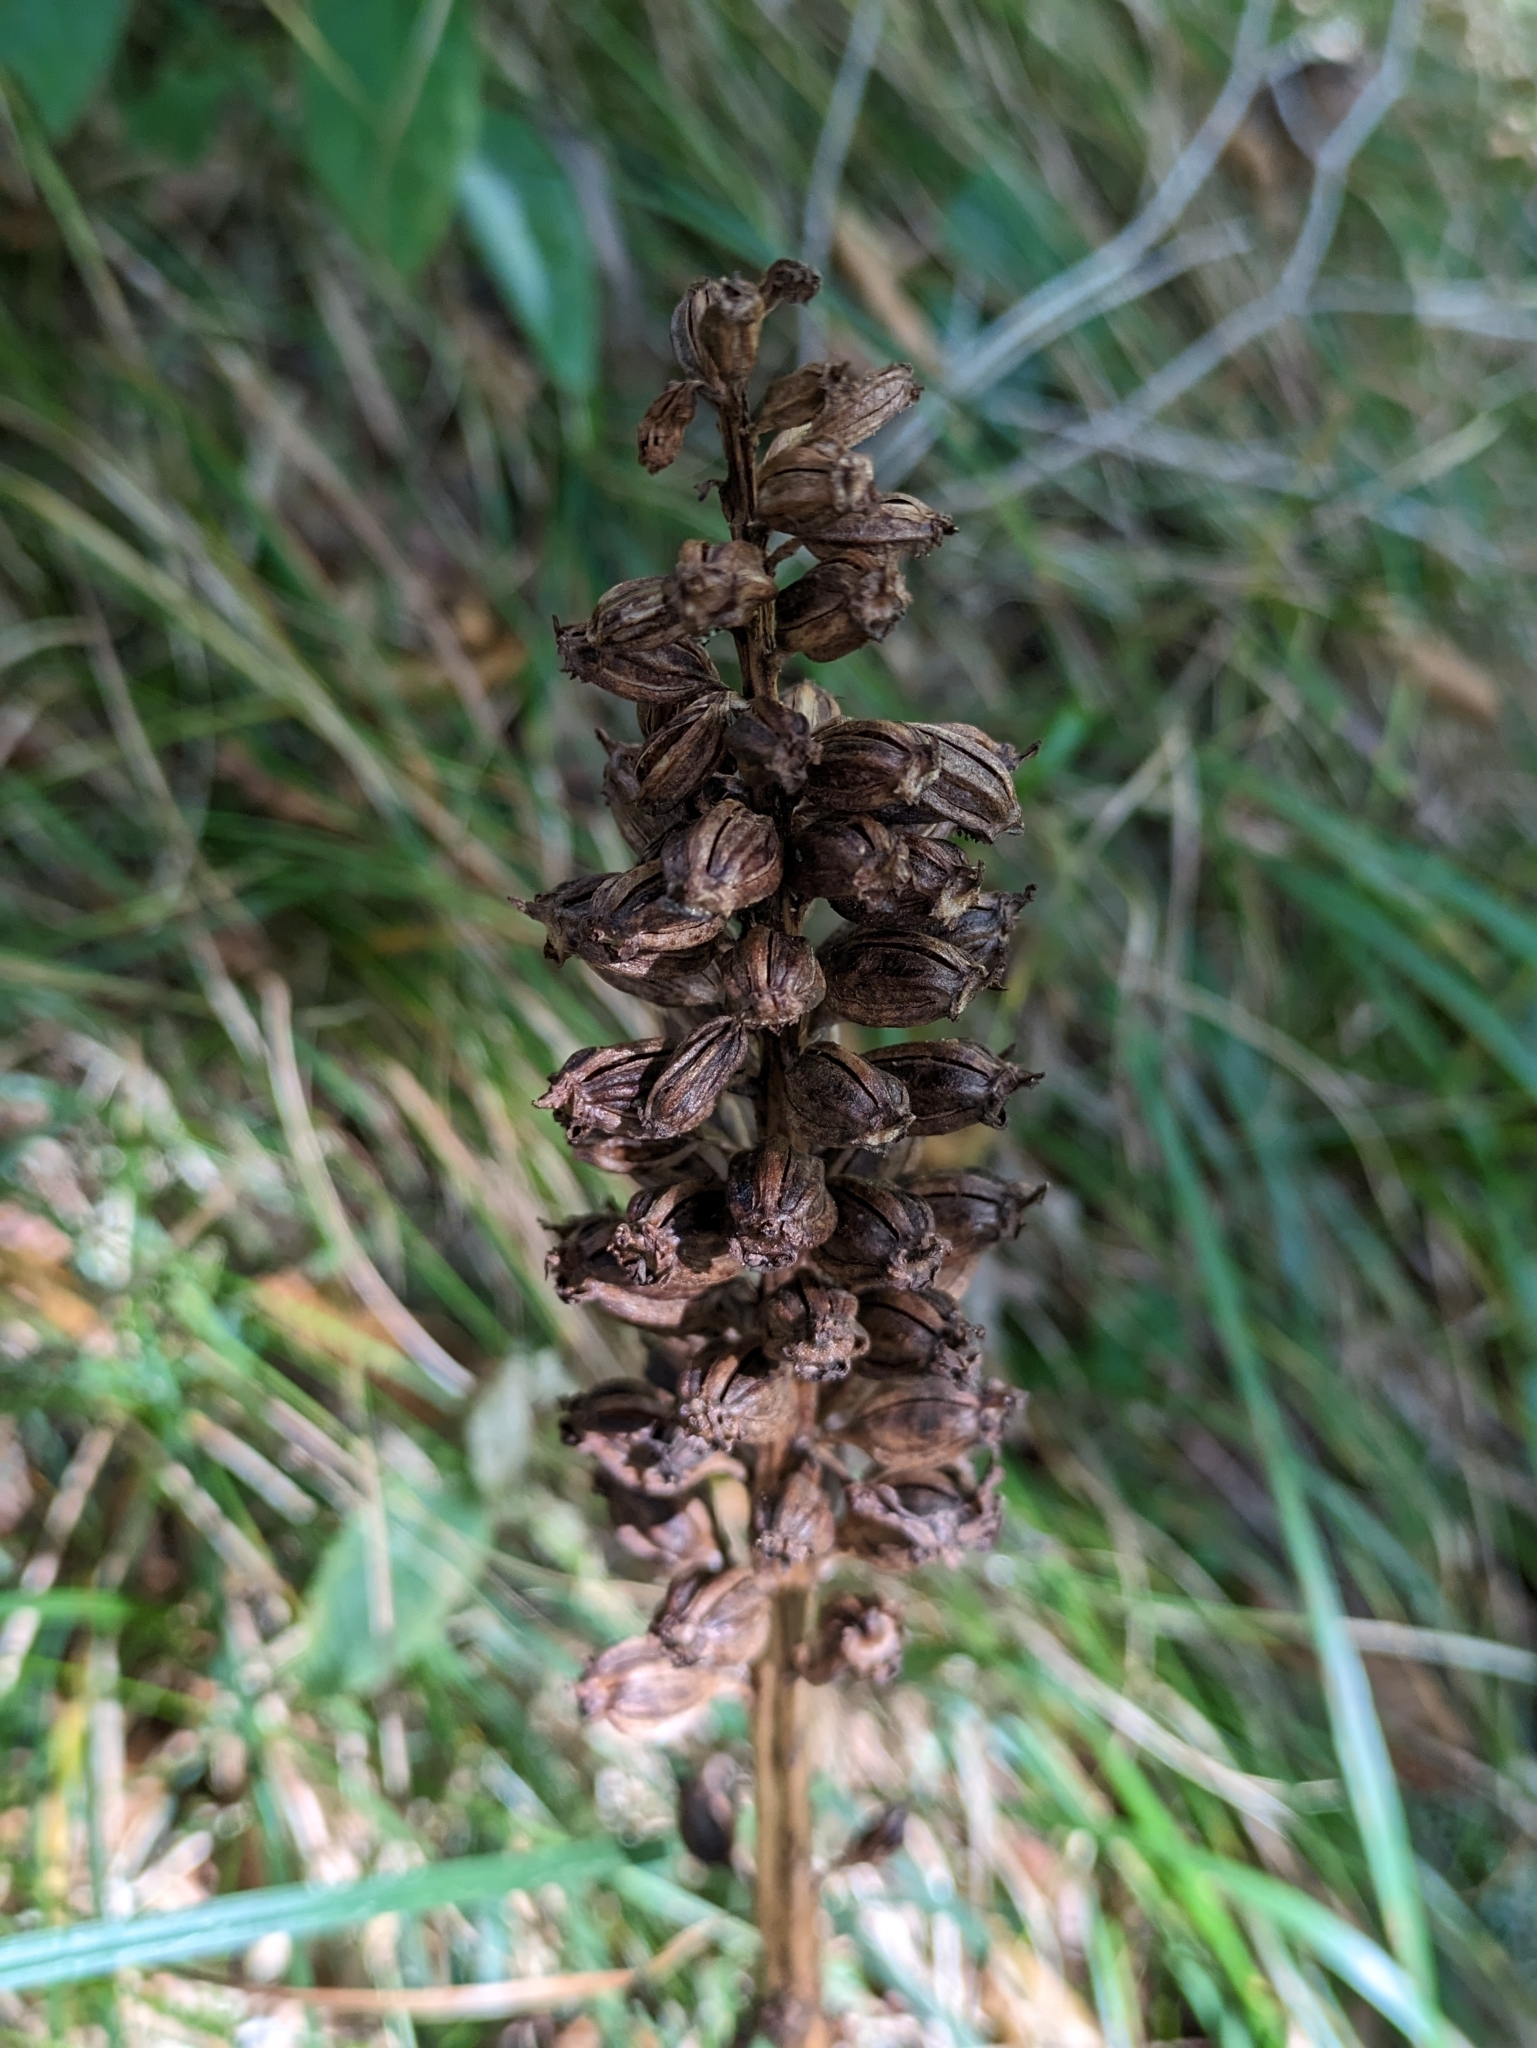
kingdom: Plantae
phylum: Tracheophyta
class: Liliopsida
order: Asparagales
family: Orchidaceae
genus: Neottia
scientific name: Neottia nidus-avis
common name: Bird's-nest orchid
